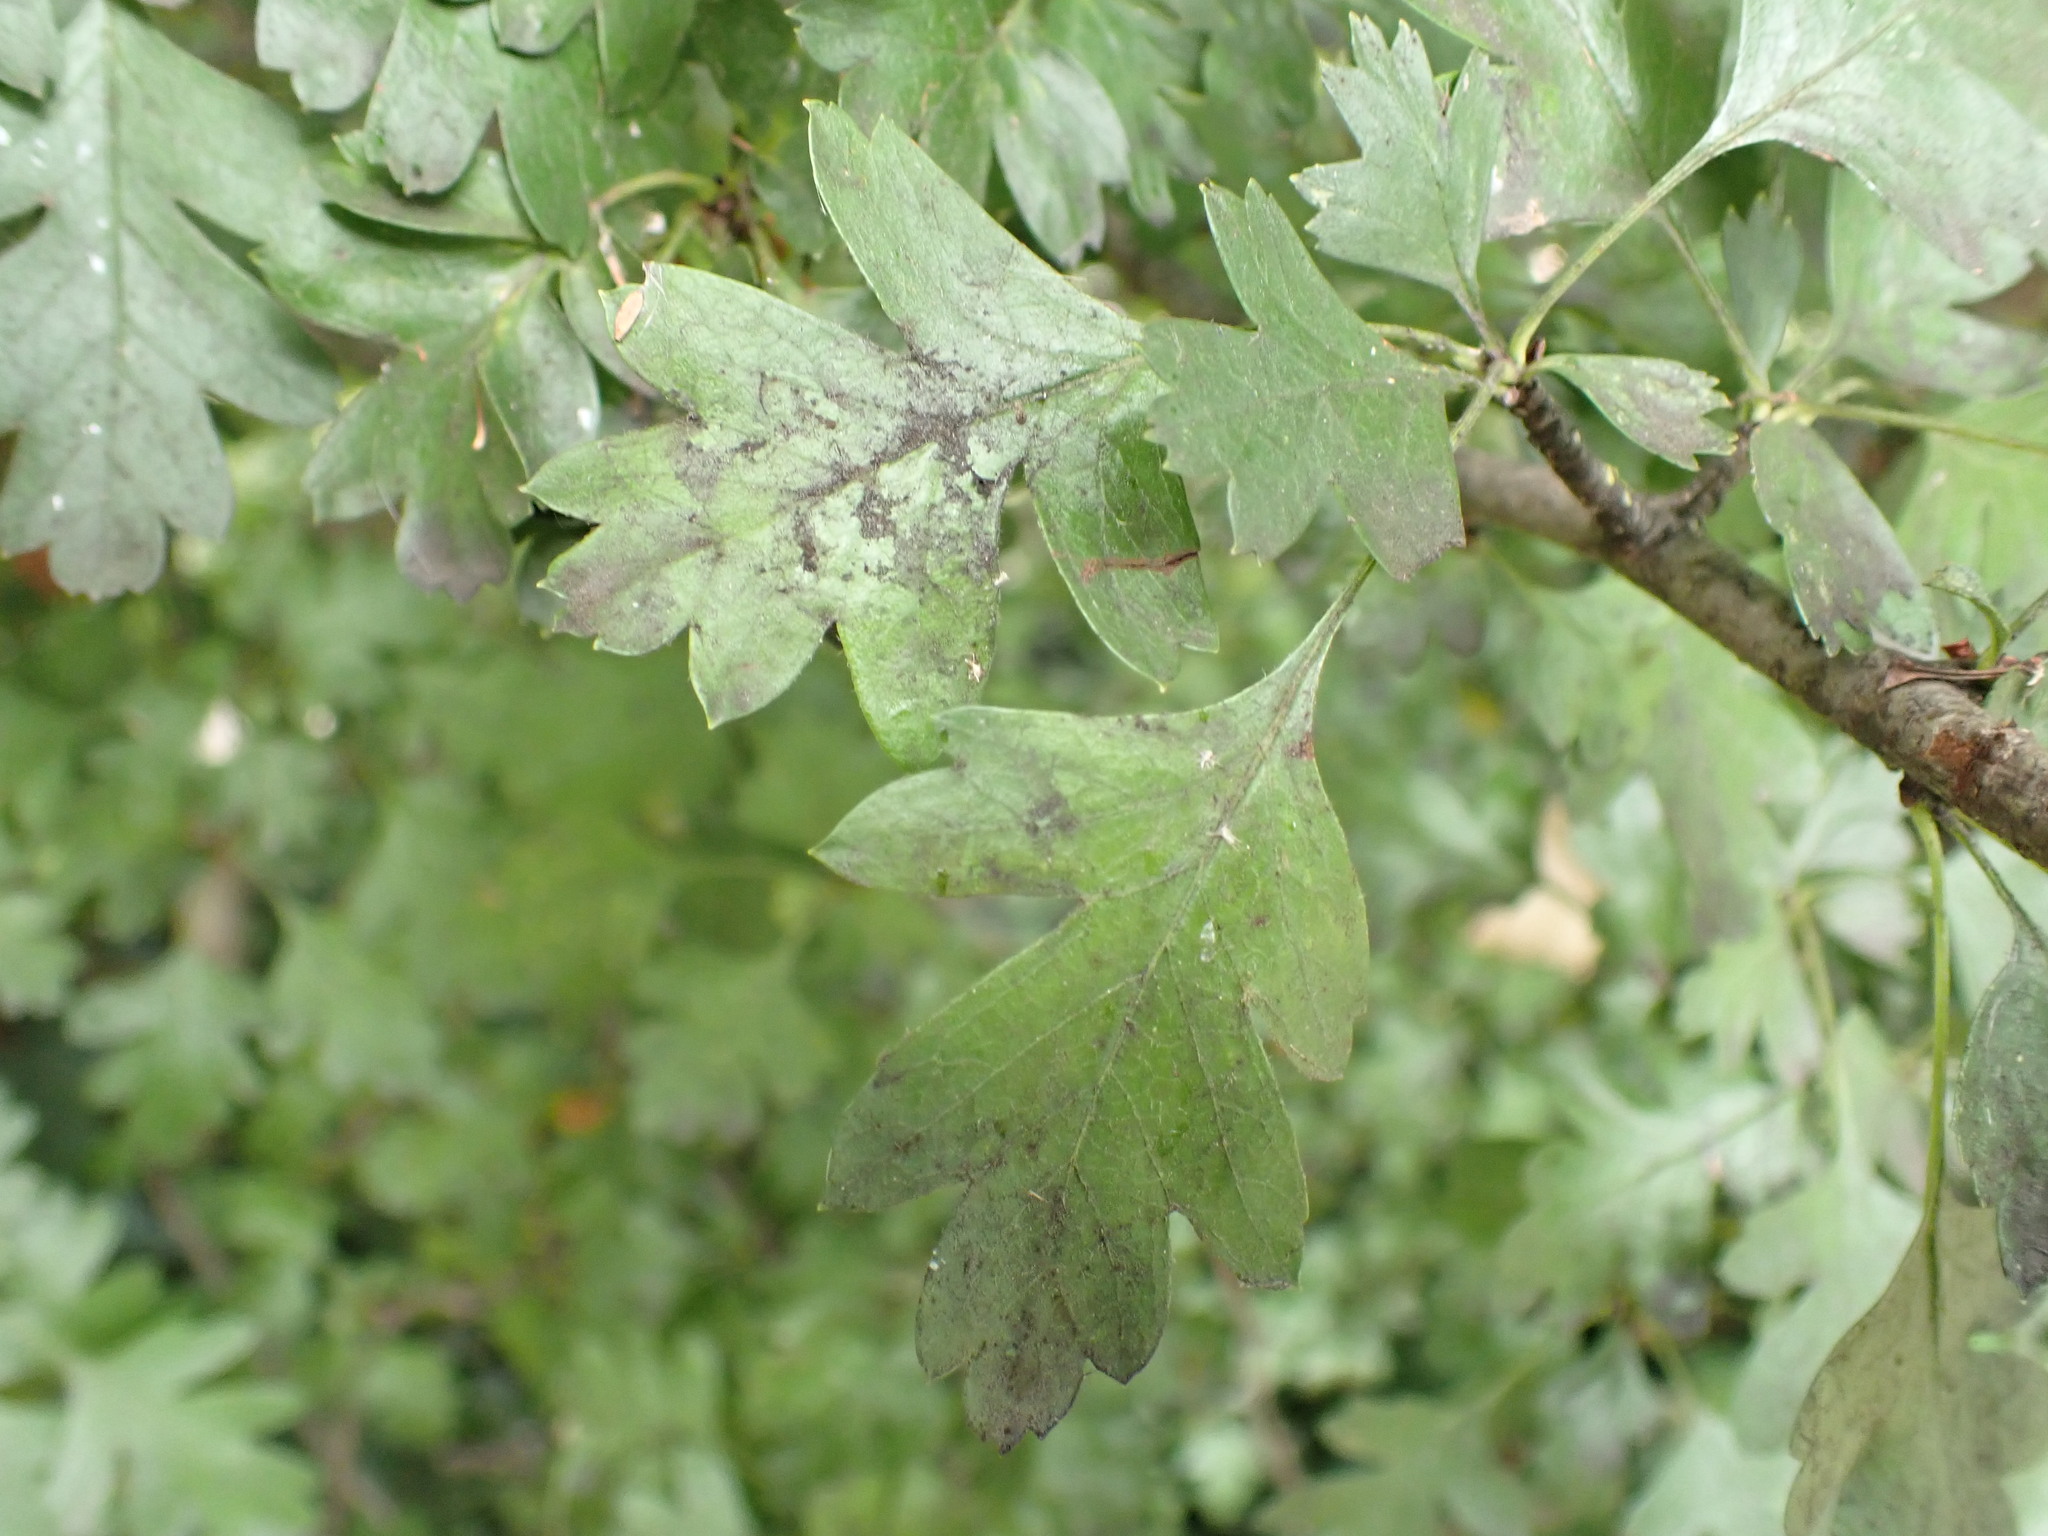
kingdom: Plantae
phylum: Tracheophyta
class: Magnoliopsida
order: Rosales
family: Rosaceae
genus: Crataegus
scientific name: Crataegus monogyna
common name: Hawthorn
